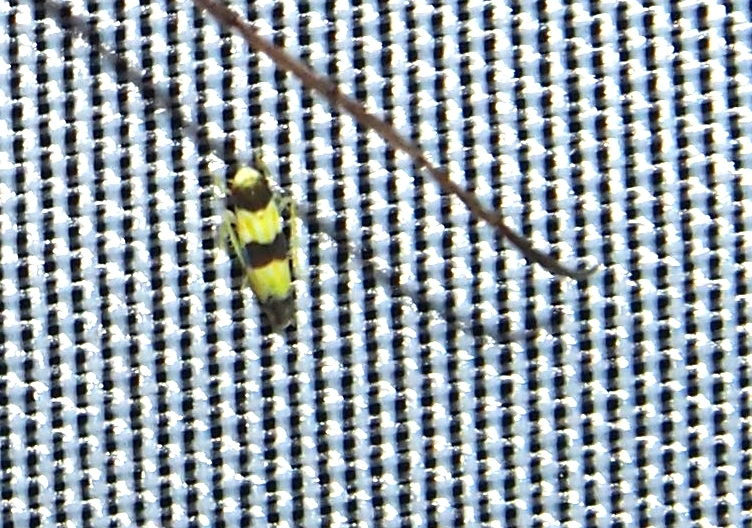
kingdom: Animalia
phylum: Arthropoda
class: Insecta
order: Hemiptera
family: Cicadellidae
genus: Erythroneura
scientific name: Erythroneura tricincta
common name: The threebanded grape leafhopper
